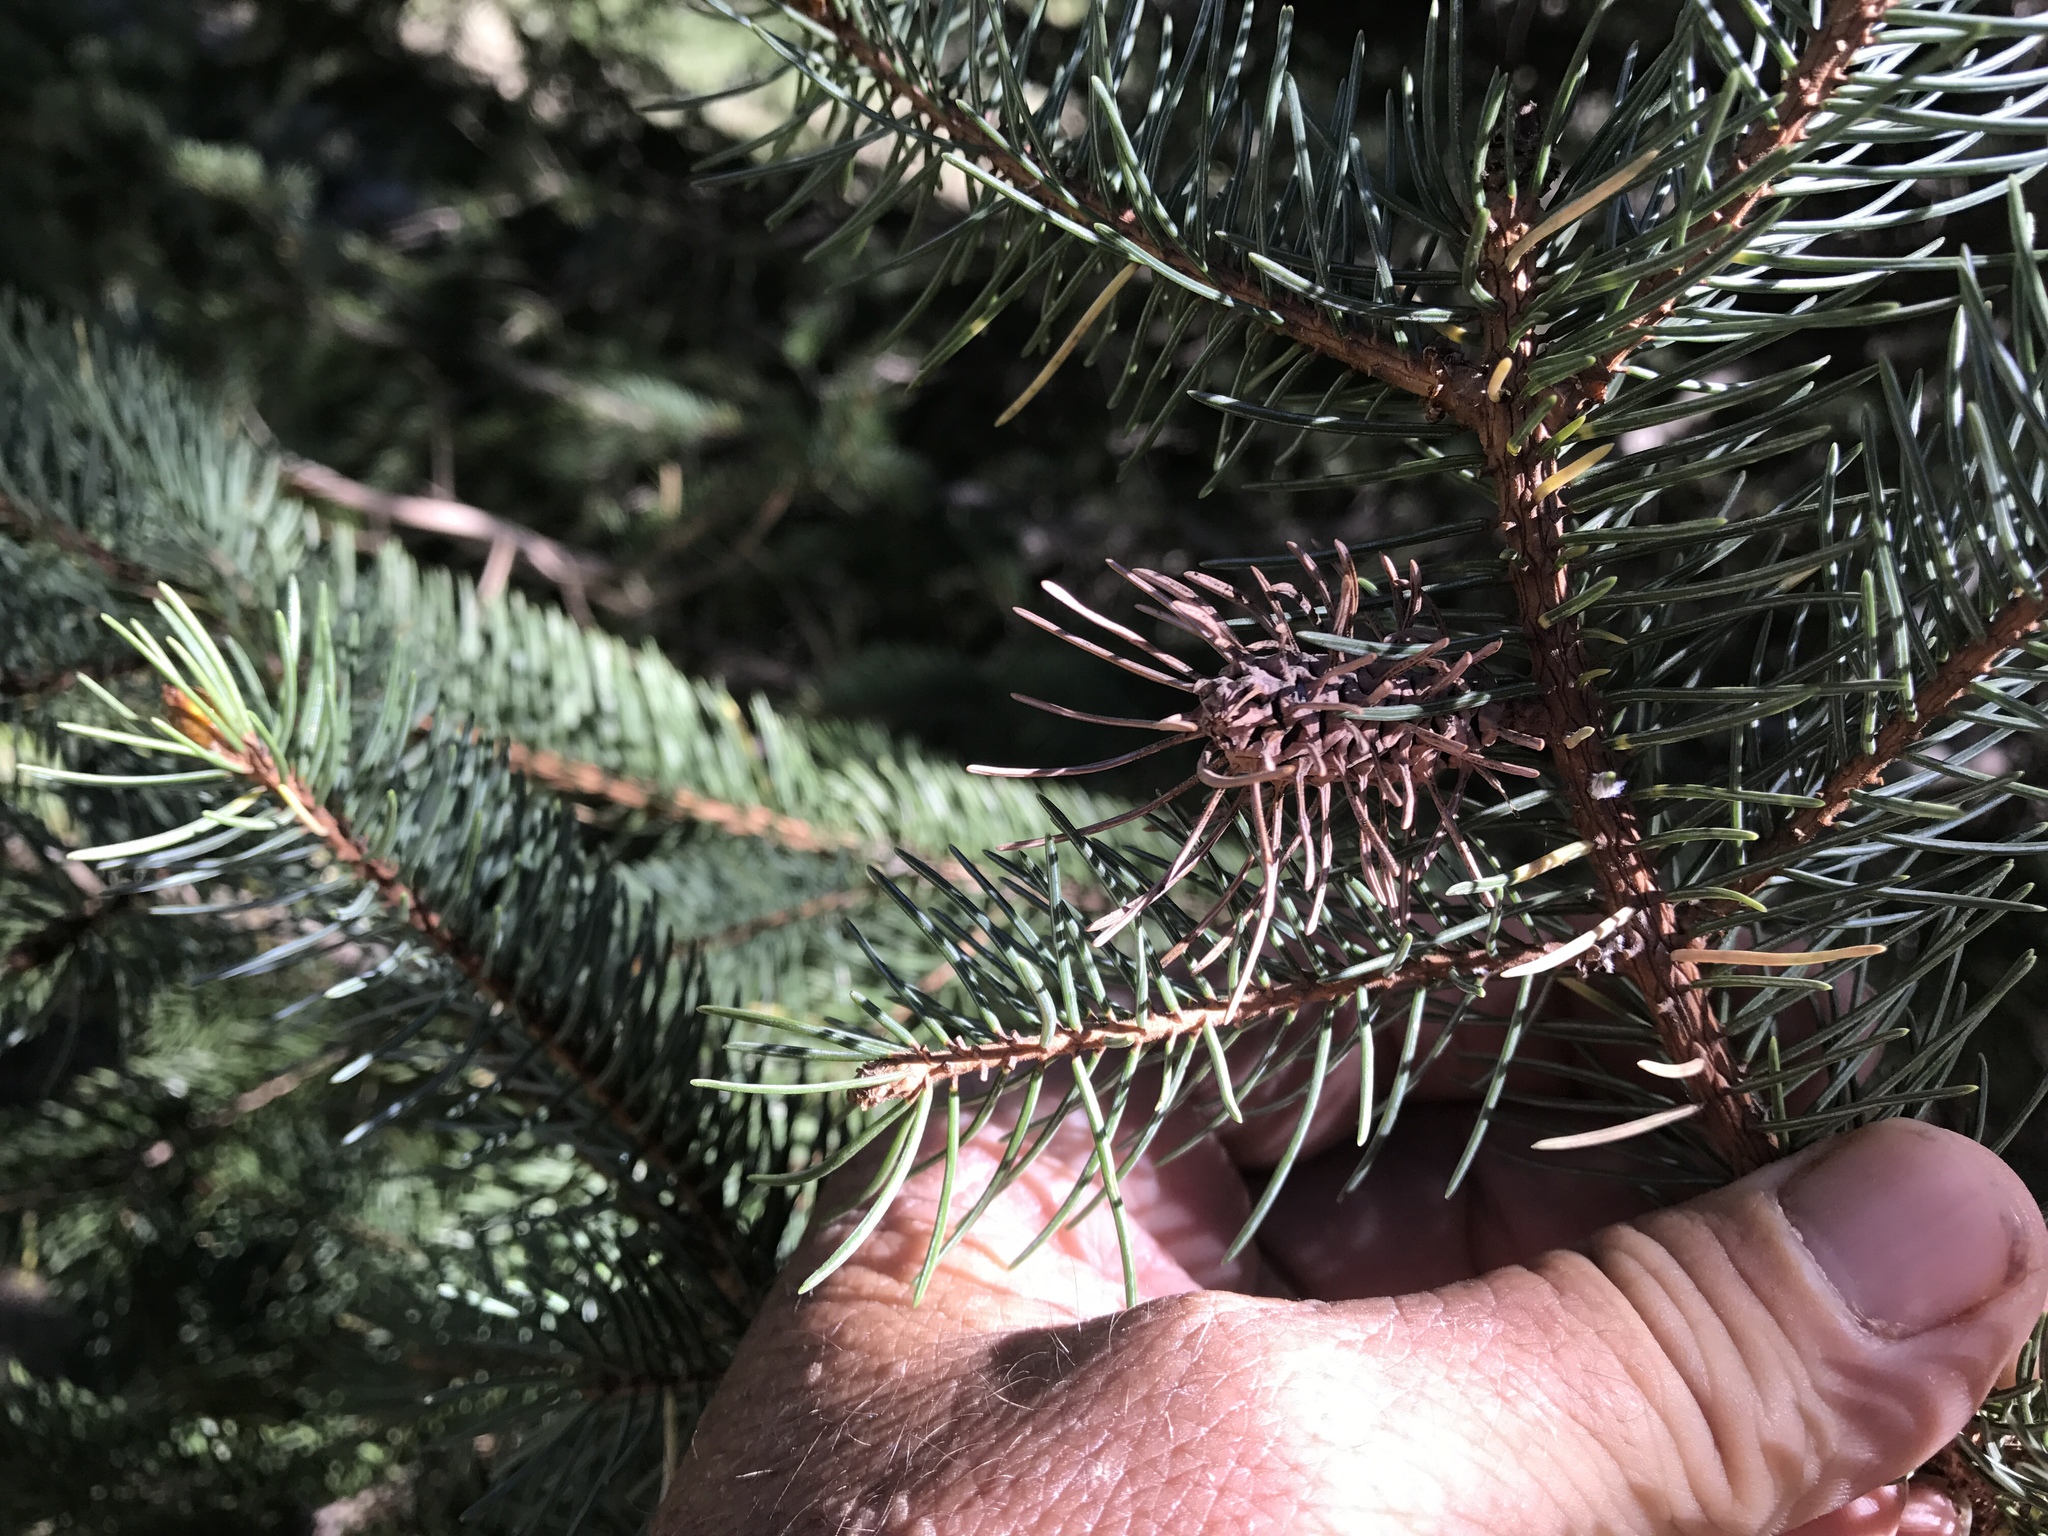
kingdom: Plantae
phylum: Tracheophyta
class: Pinopsida
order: Pinales
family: Pinaceae
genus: Picea
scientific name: Picea engelmannii
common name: Engelmann spruce
